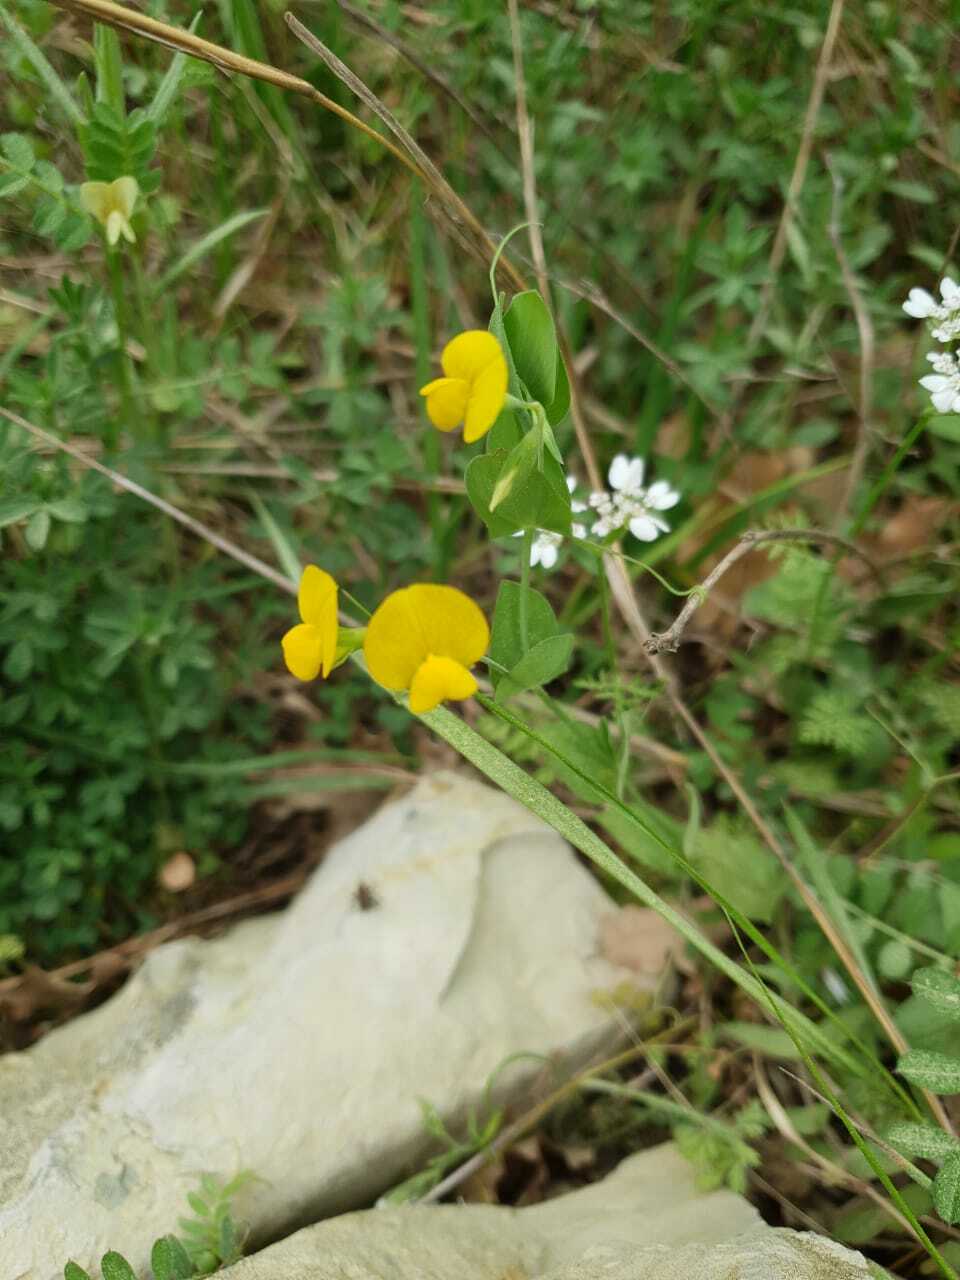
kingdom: Plantae
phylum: Tracheophyta
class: Magnoliopsida
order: Fabales
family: Fabaceae
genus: Lathyrus
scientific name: Lathyrus aphaca
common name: Yellow vetchling
